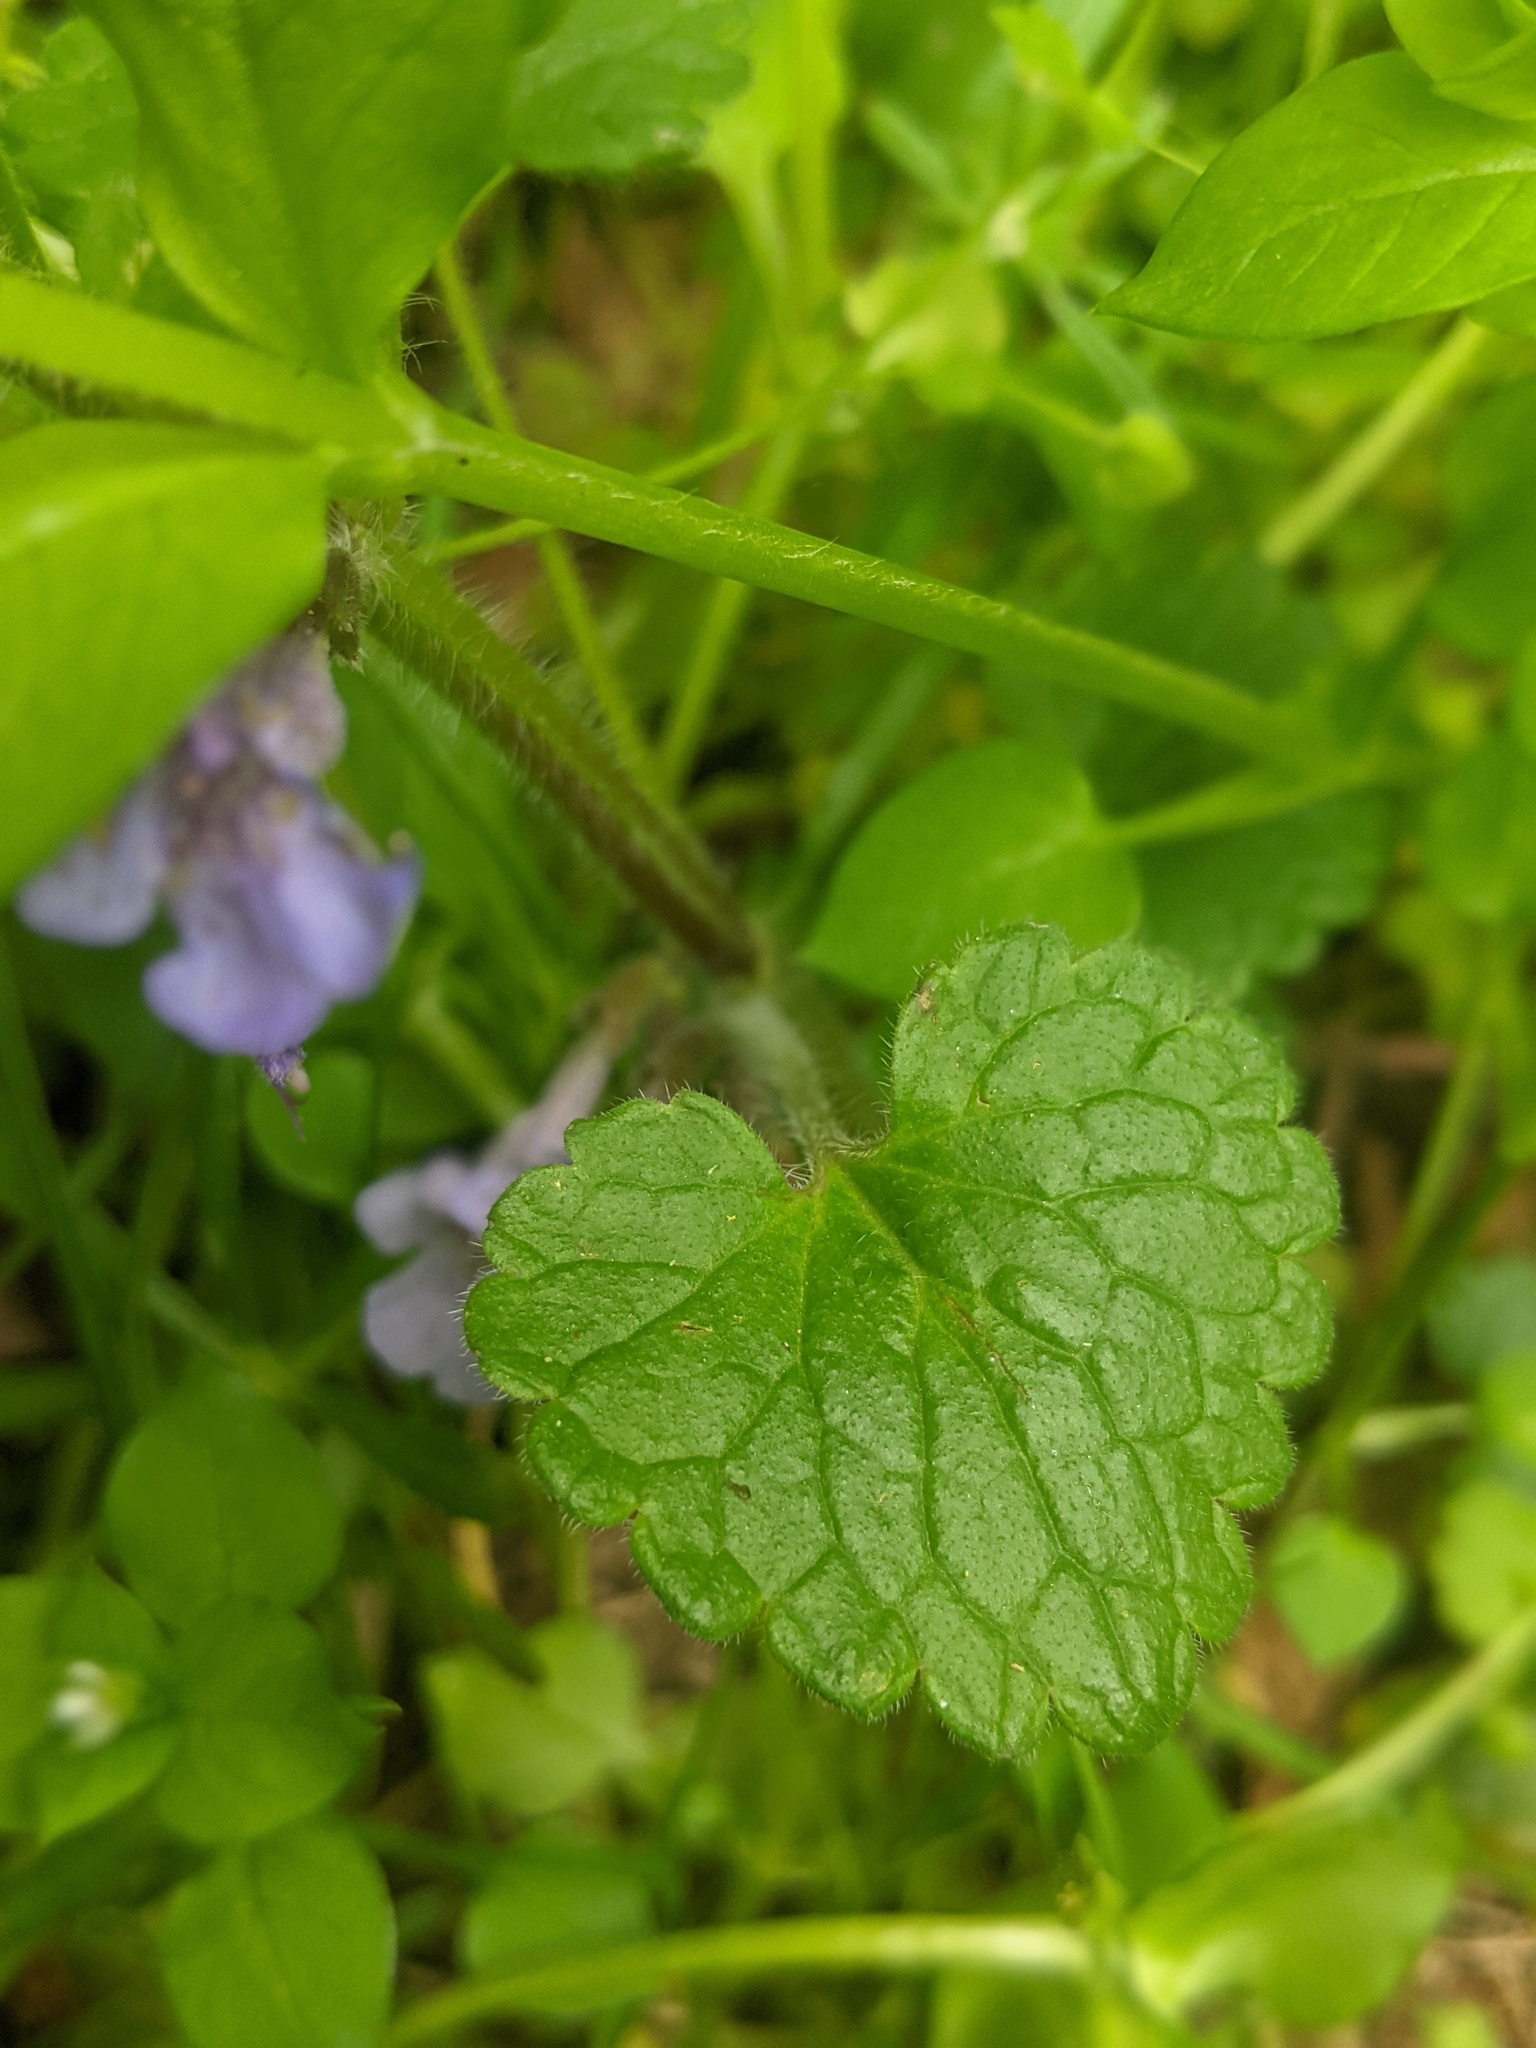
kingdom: Plantae
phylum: Tracheophyta
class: Magnoliopsida
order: Lamiales
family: Lamiaceae
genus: Glechoma
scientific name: Glechoma hederacea
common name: Ground ivy
